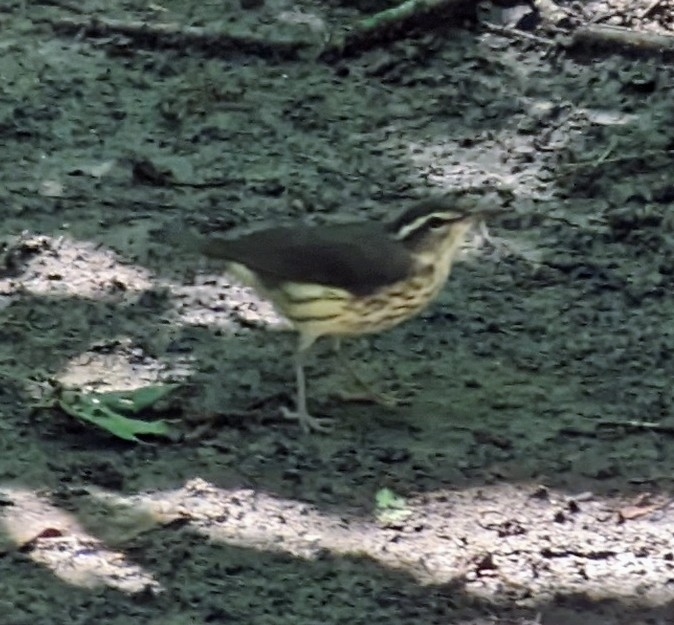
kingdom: Animalia
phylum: Chordata
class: Aves
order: Passeriformes
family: Parulidae
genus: Parkesia
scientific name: Parkesia motacilla
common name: Louisiana waterthrush
